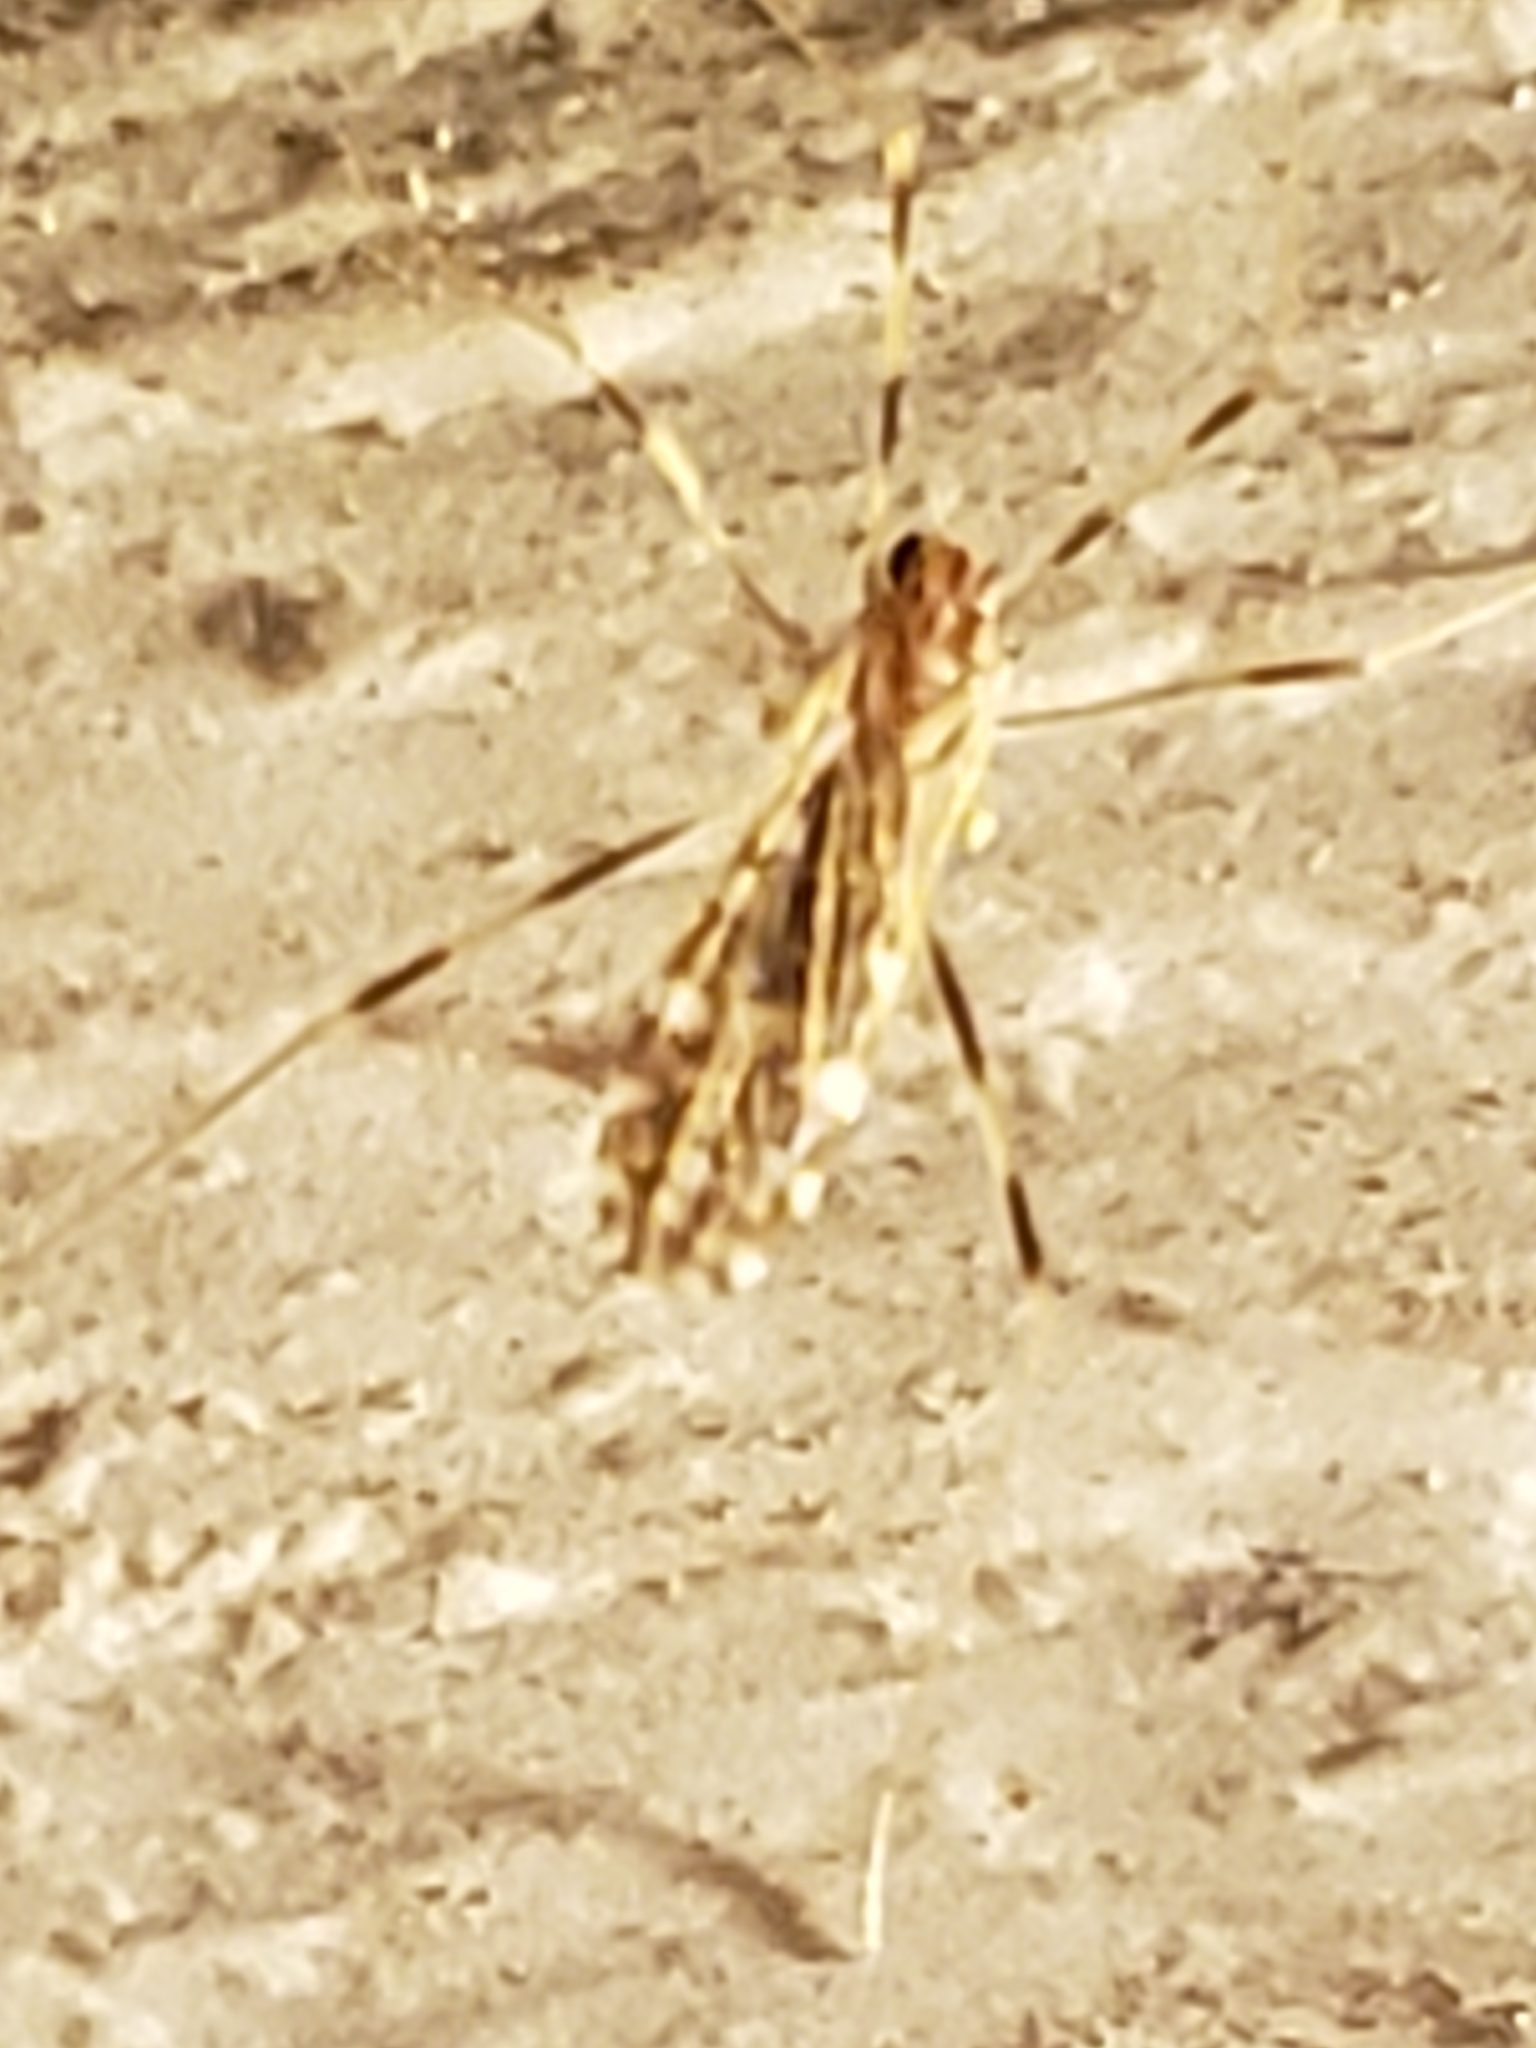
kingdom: Animalia
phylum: Arthropoda
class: Insecta
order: Diptera
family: Limoniidae
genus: Erioptera
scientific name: Erioptera caliptera
